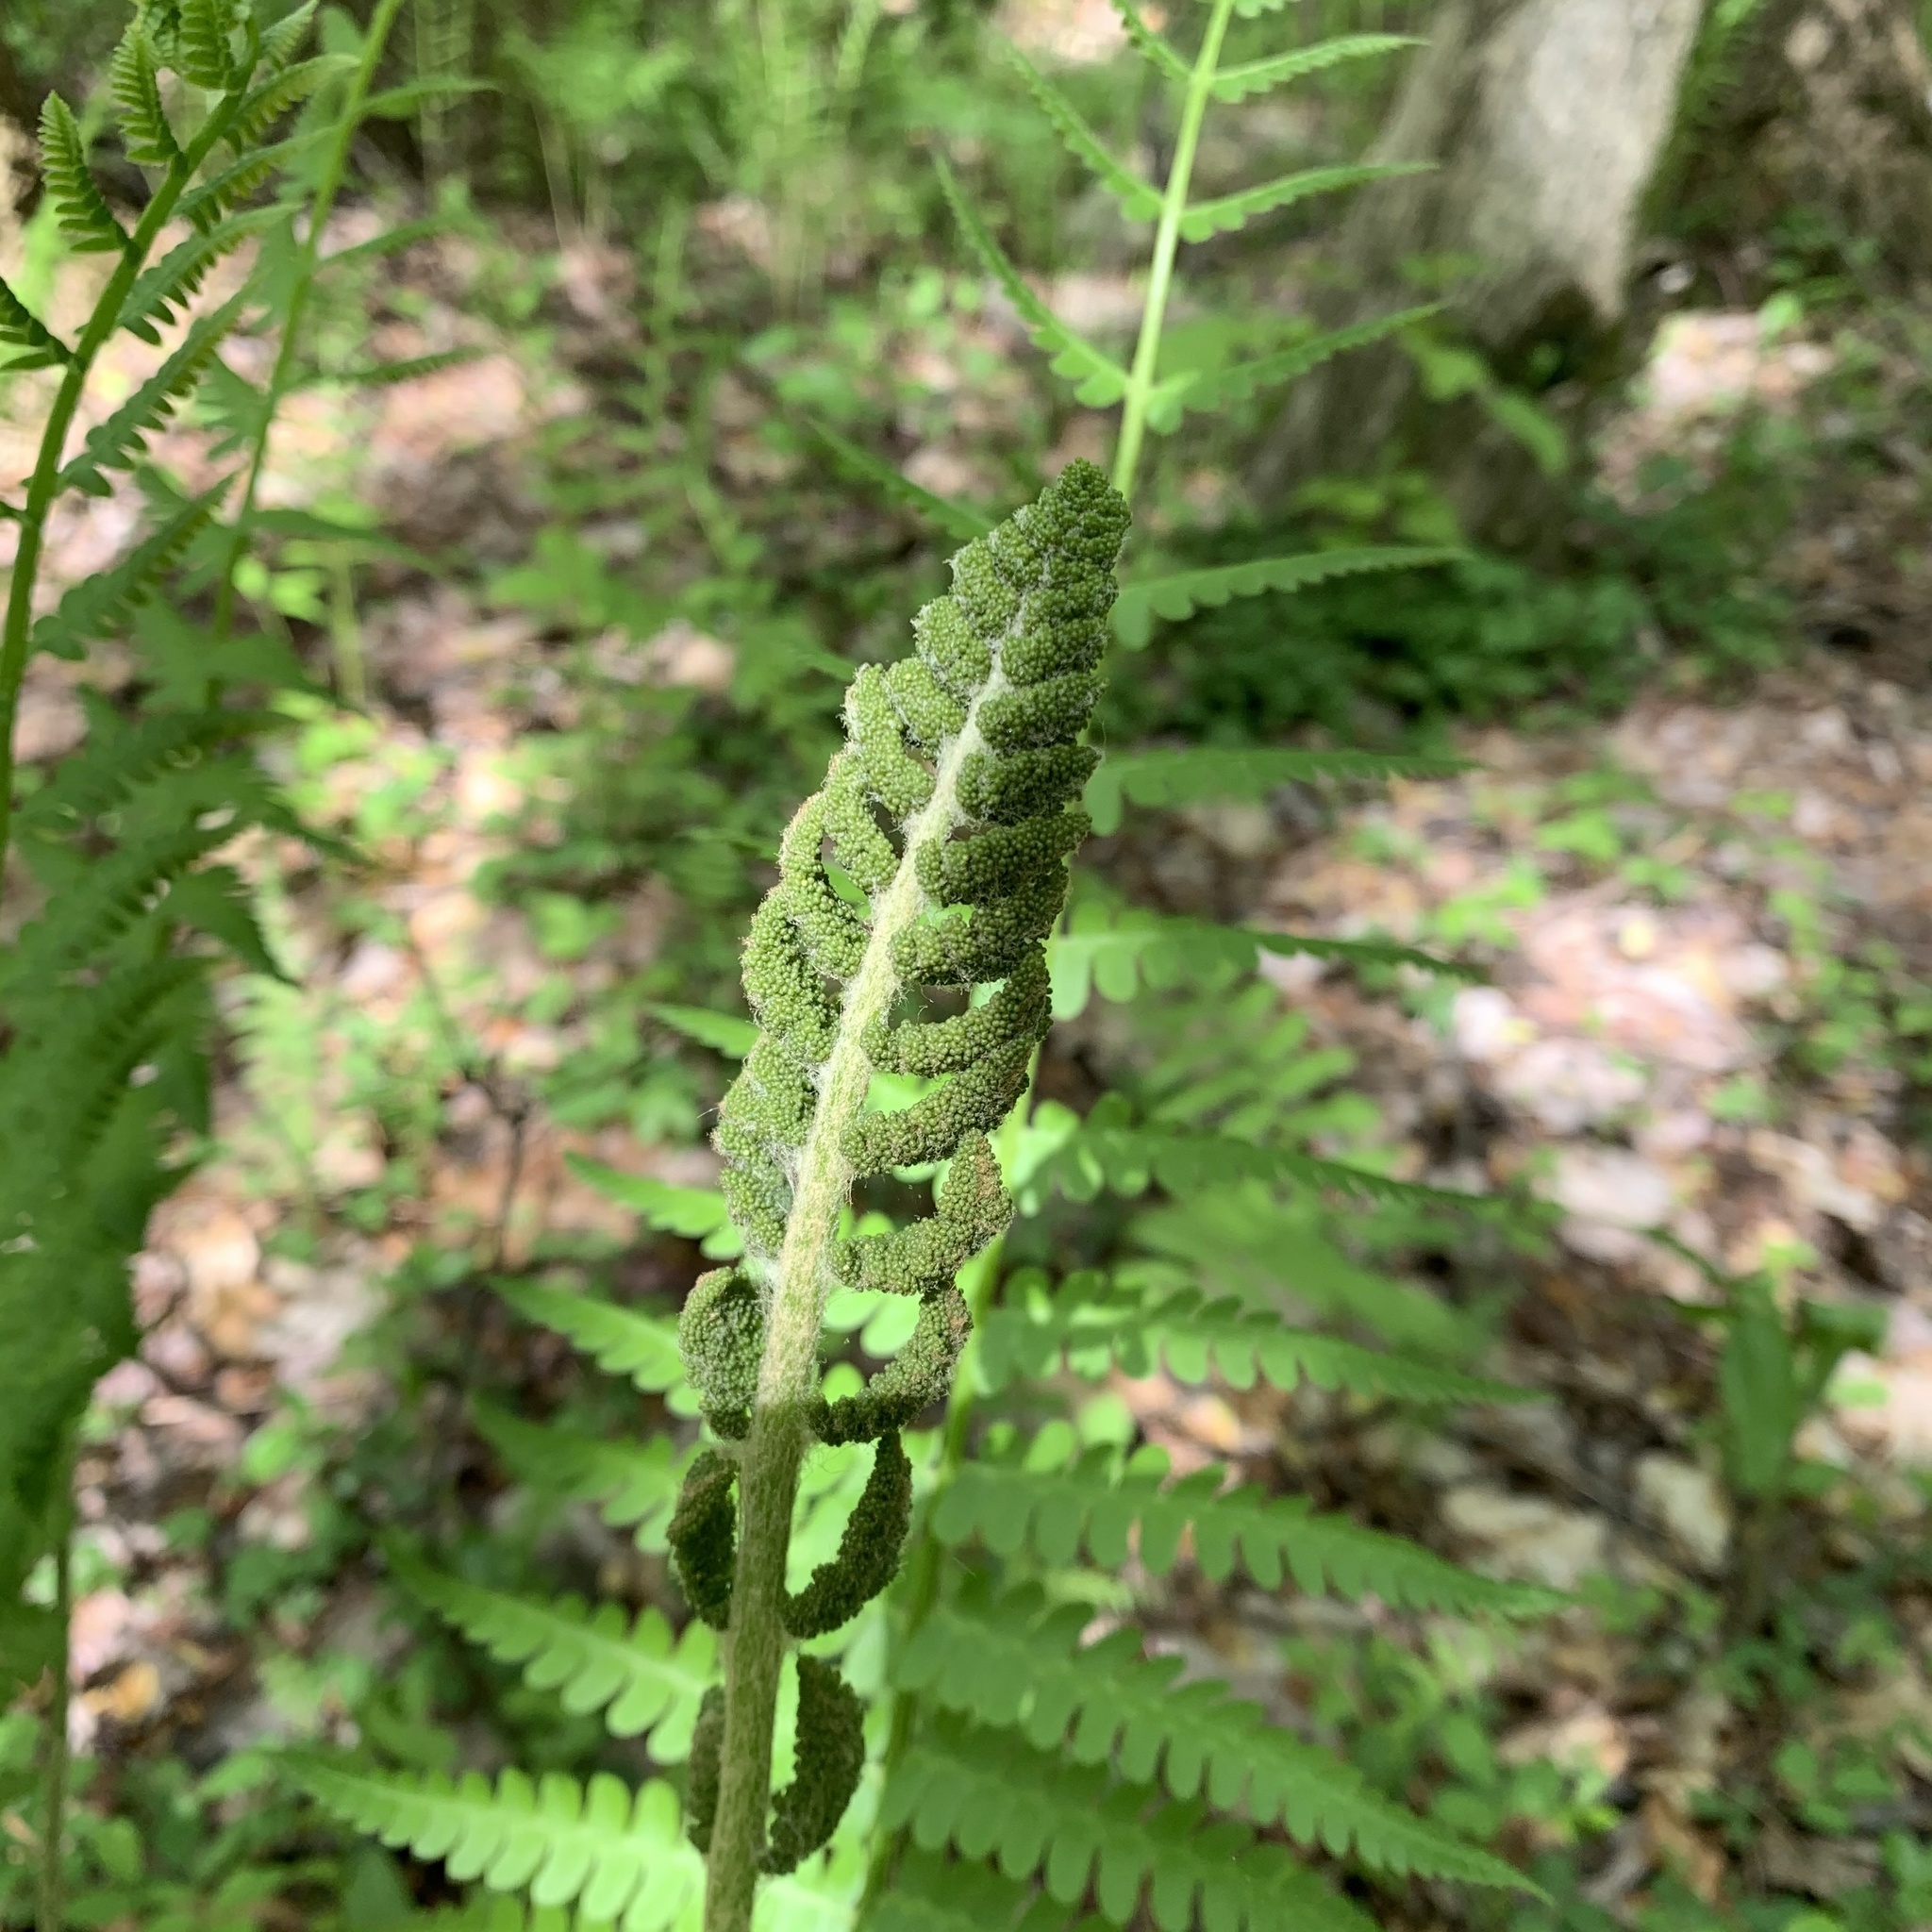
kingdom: Plantae
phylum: Tracheophyta
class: Polypodiopsida
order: Osmundales
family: Osmundaceae
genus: Osmundastrum
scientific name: Osmundastrum cinnamomeum
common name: Cinnamon fern
